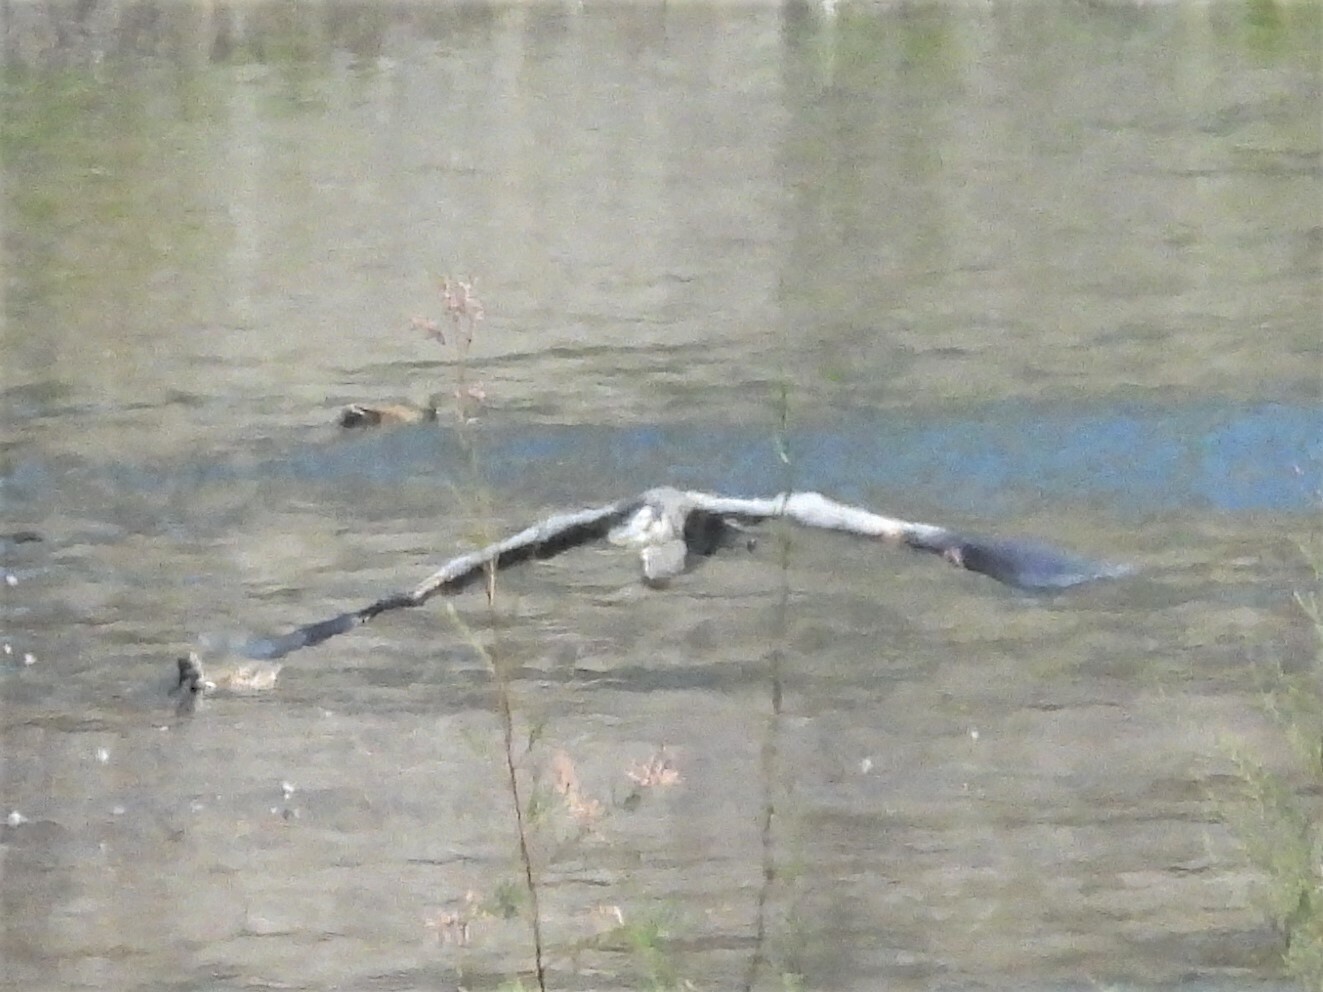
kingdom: Animalia
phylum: Chordata
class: Aves
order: Pelecaniformes
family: Ardeidae
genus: Ardea
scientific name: Ardea herodias
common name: Great blue heron
